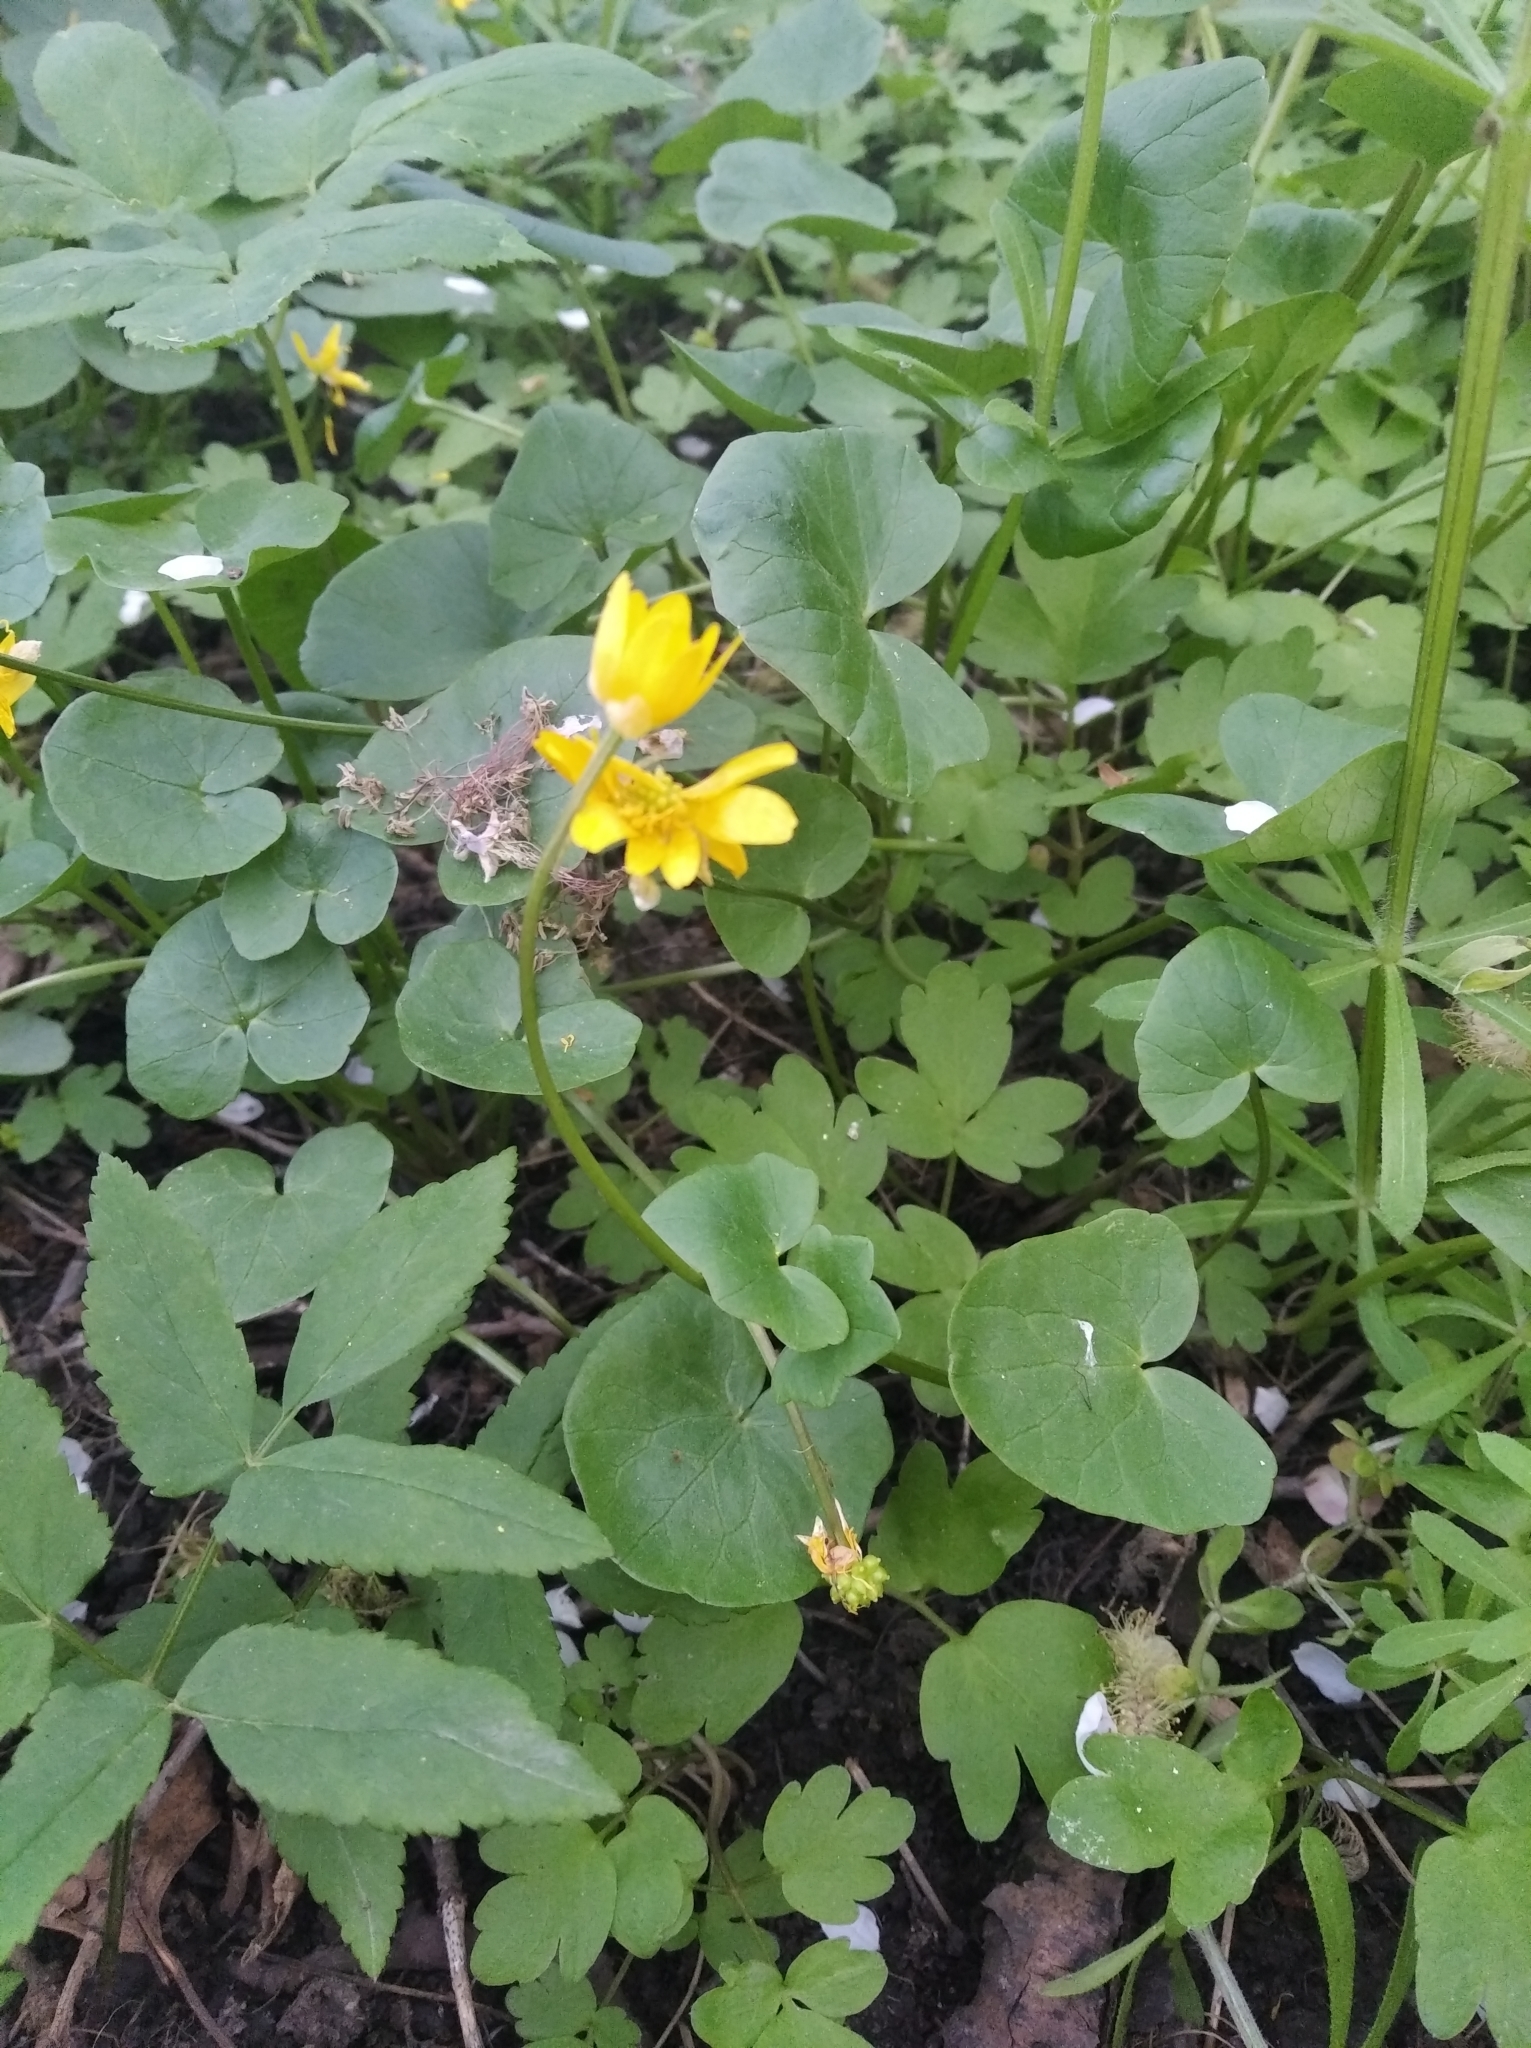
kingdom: Plantae
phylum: Tracheophyta
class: Magnoliopsida
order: Ranunculales
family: Ranunculaceae
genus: Ficaria
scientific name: Ficaria verna
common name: Lesser celandine
